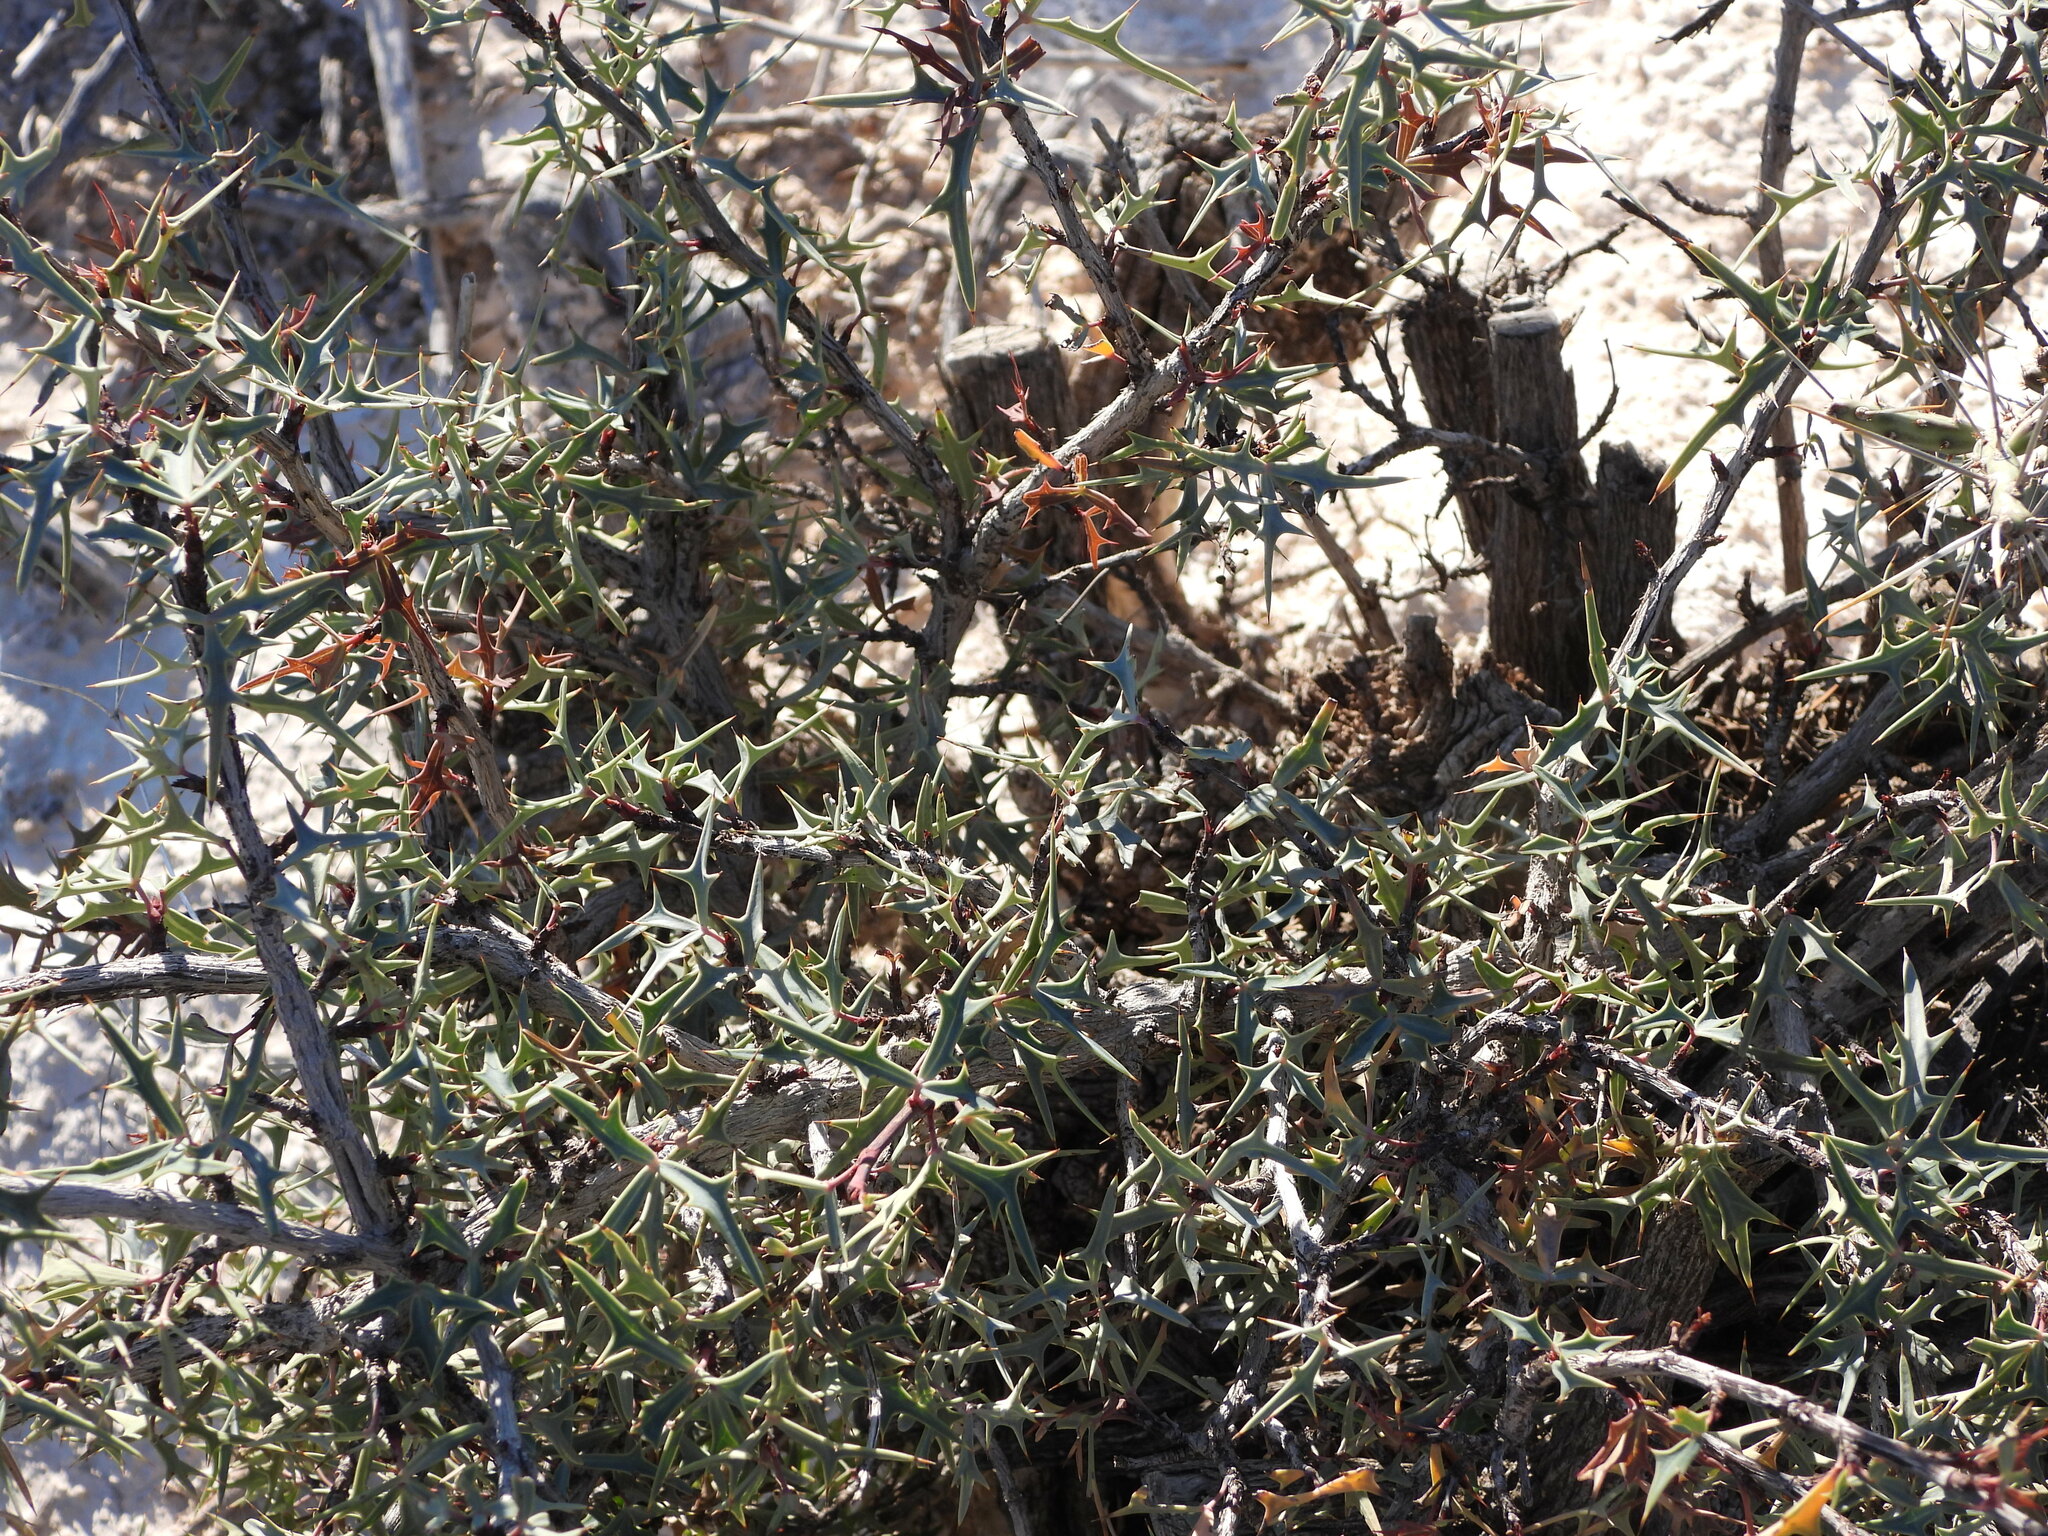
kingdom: Plantae
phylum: Tracheophyta
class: Magnoliopsida
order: Ranunculales
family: Berberidaceae
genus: Alloberberis
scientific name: Alloberberis trifoliolata
